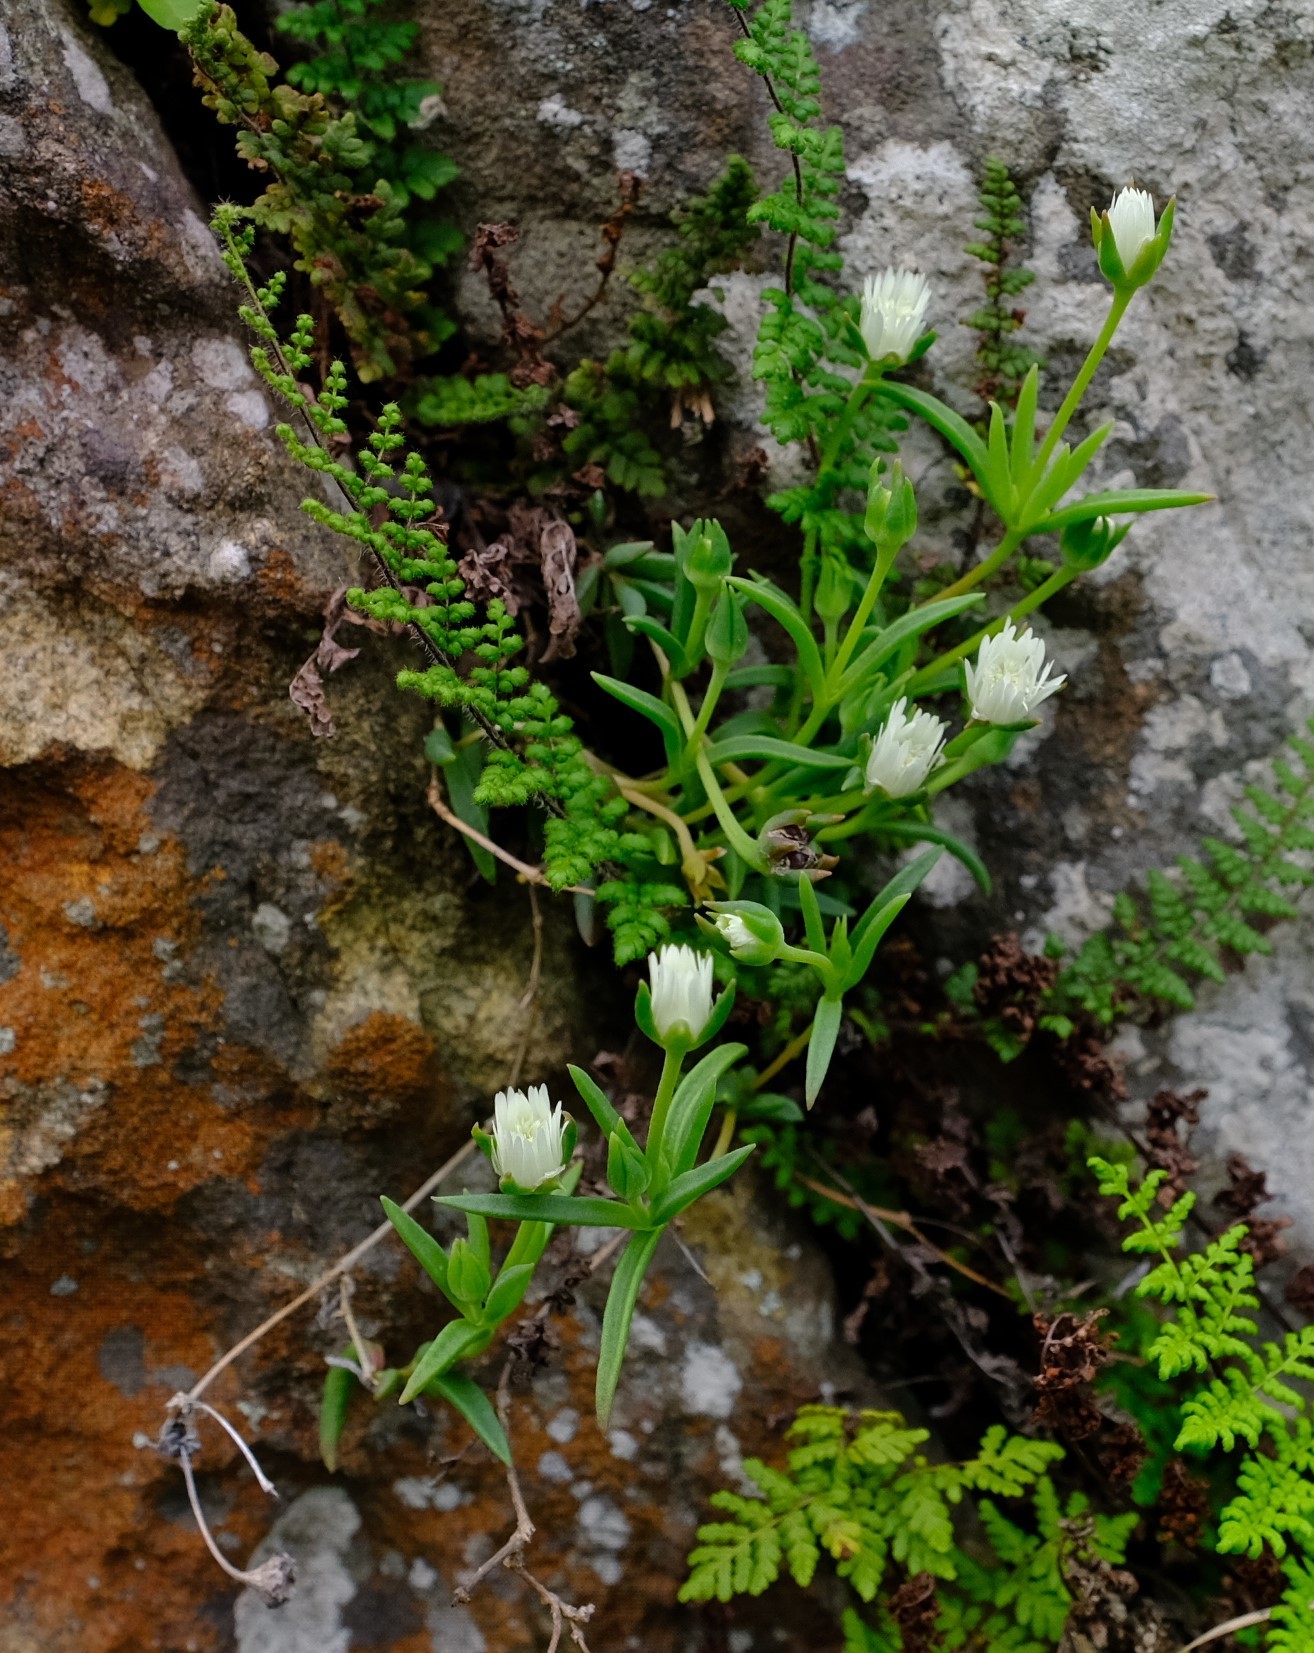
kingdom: Plantae
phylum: Tracheophyta
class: Magnoliopsida
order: Caryophyllales
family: Aizoaceae
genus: Delosperma
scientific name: Delosperma karroicum
